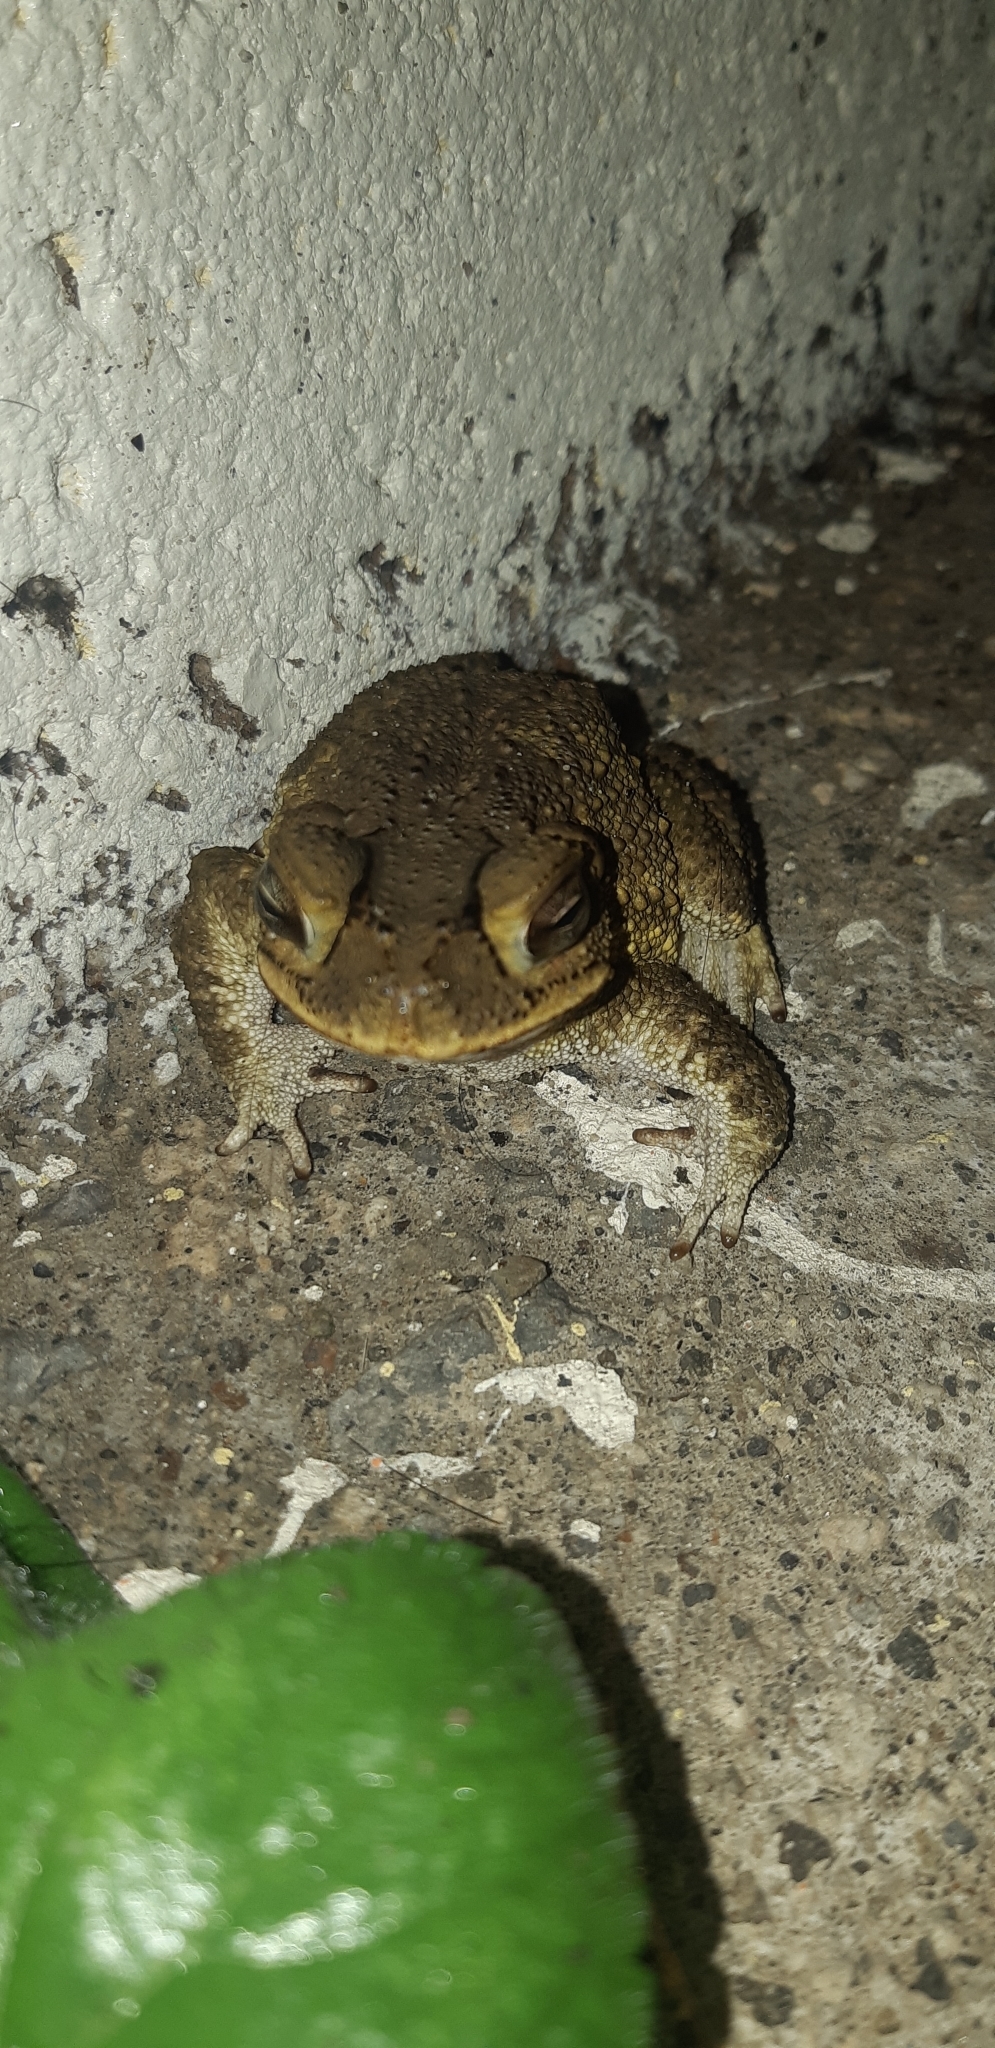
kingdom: Animalia
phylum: Chordata
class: Amphibia
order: Anura
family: Bufonidae
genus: Incilius
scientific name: Incilius luetkenii
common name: Yellow toad
